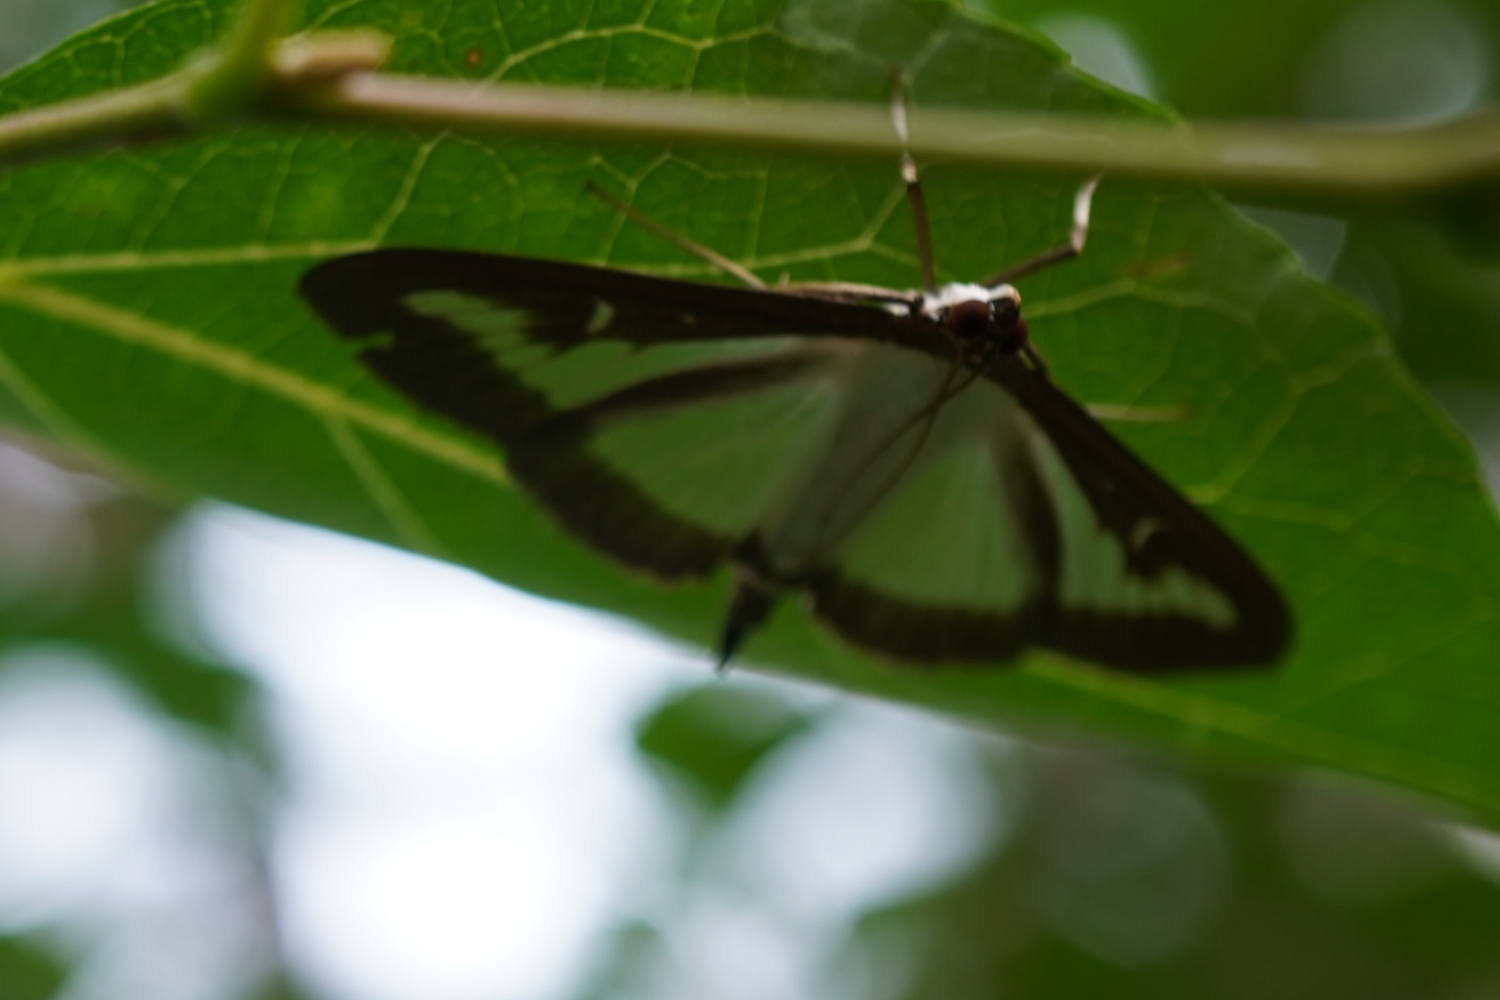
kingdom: Animalia
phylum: Arthropoda
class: Insecta
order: Lepidoptera
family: Crambidae
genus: Cydalima
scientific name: Cydalima perspectalis
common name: Box tree moth
